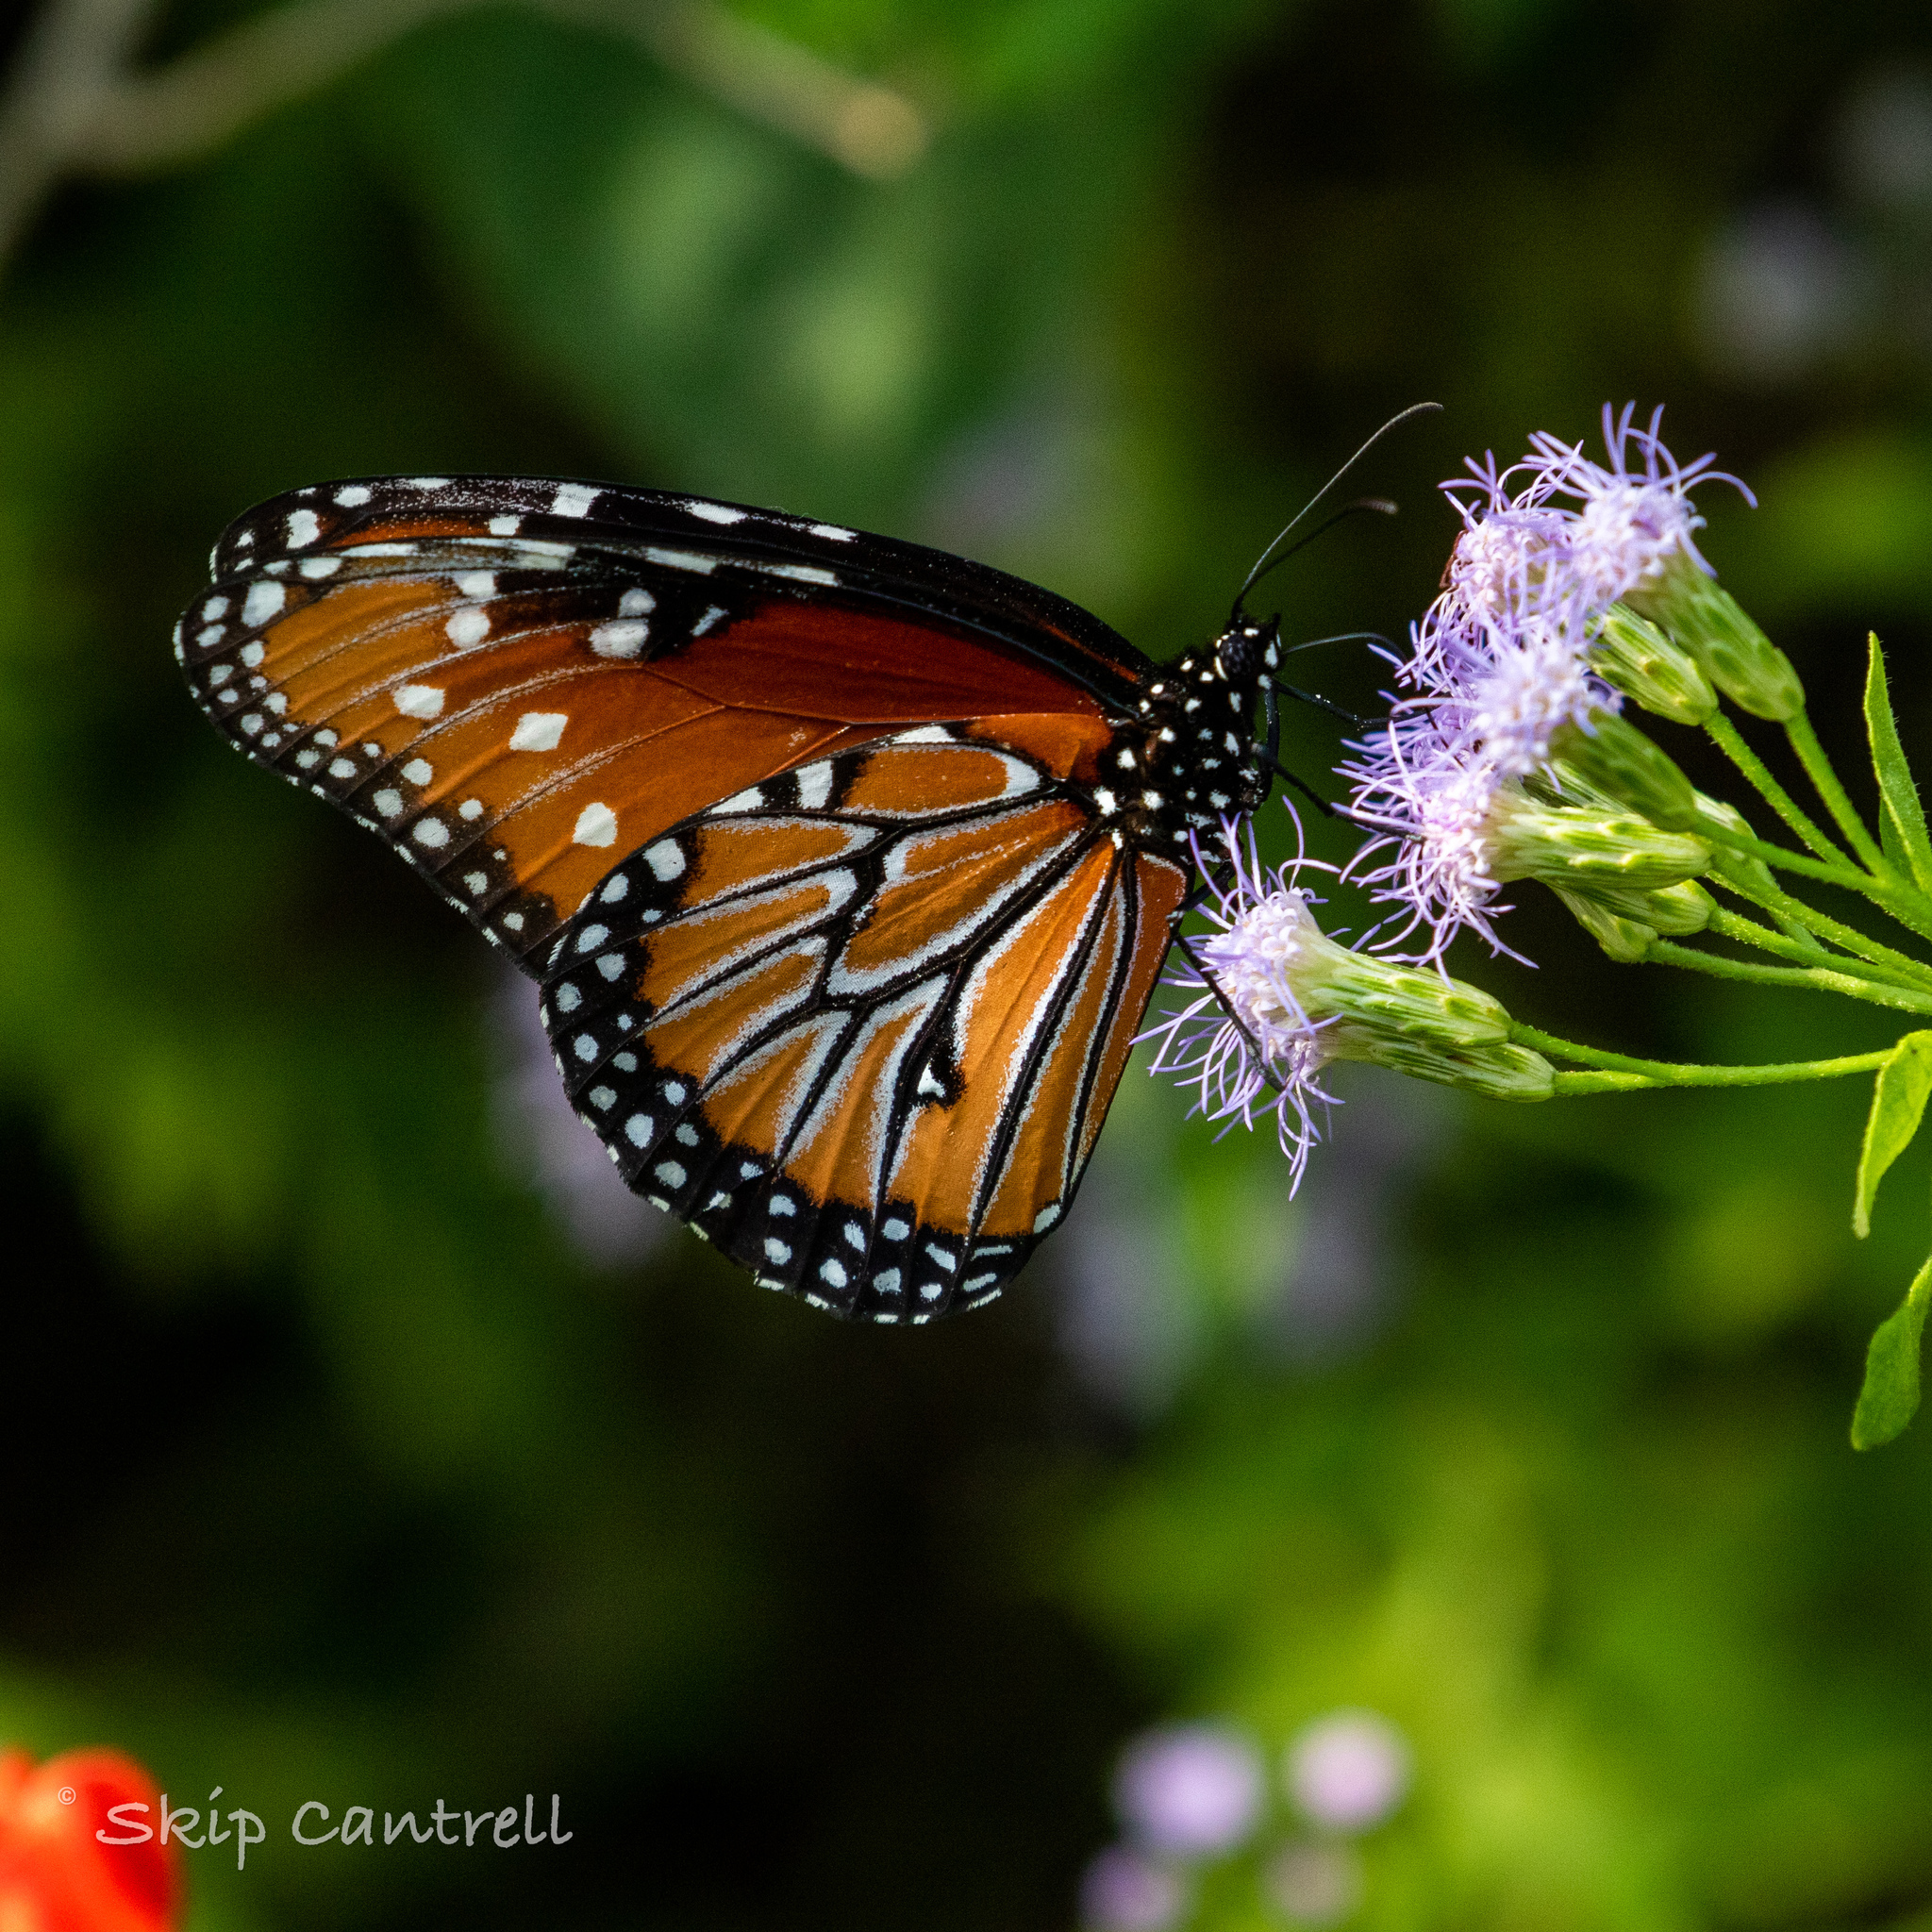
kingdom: Animalia
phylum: Arthropoda
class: Insecta
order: Lepidoptera
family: Nymphalidae
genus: Danaus
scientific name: Danaus gilippus
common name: Queen
